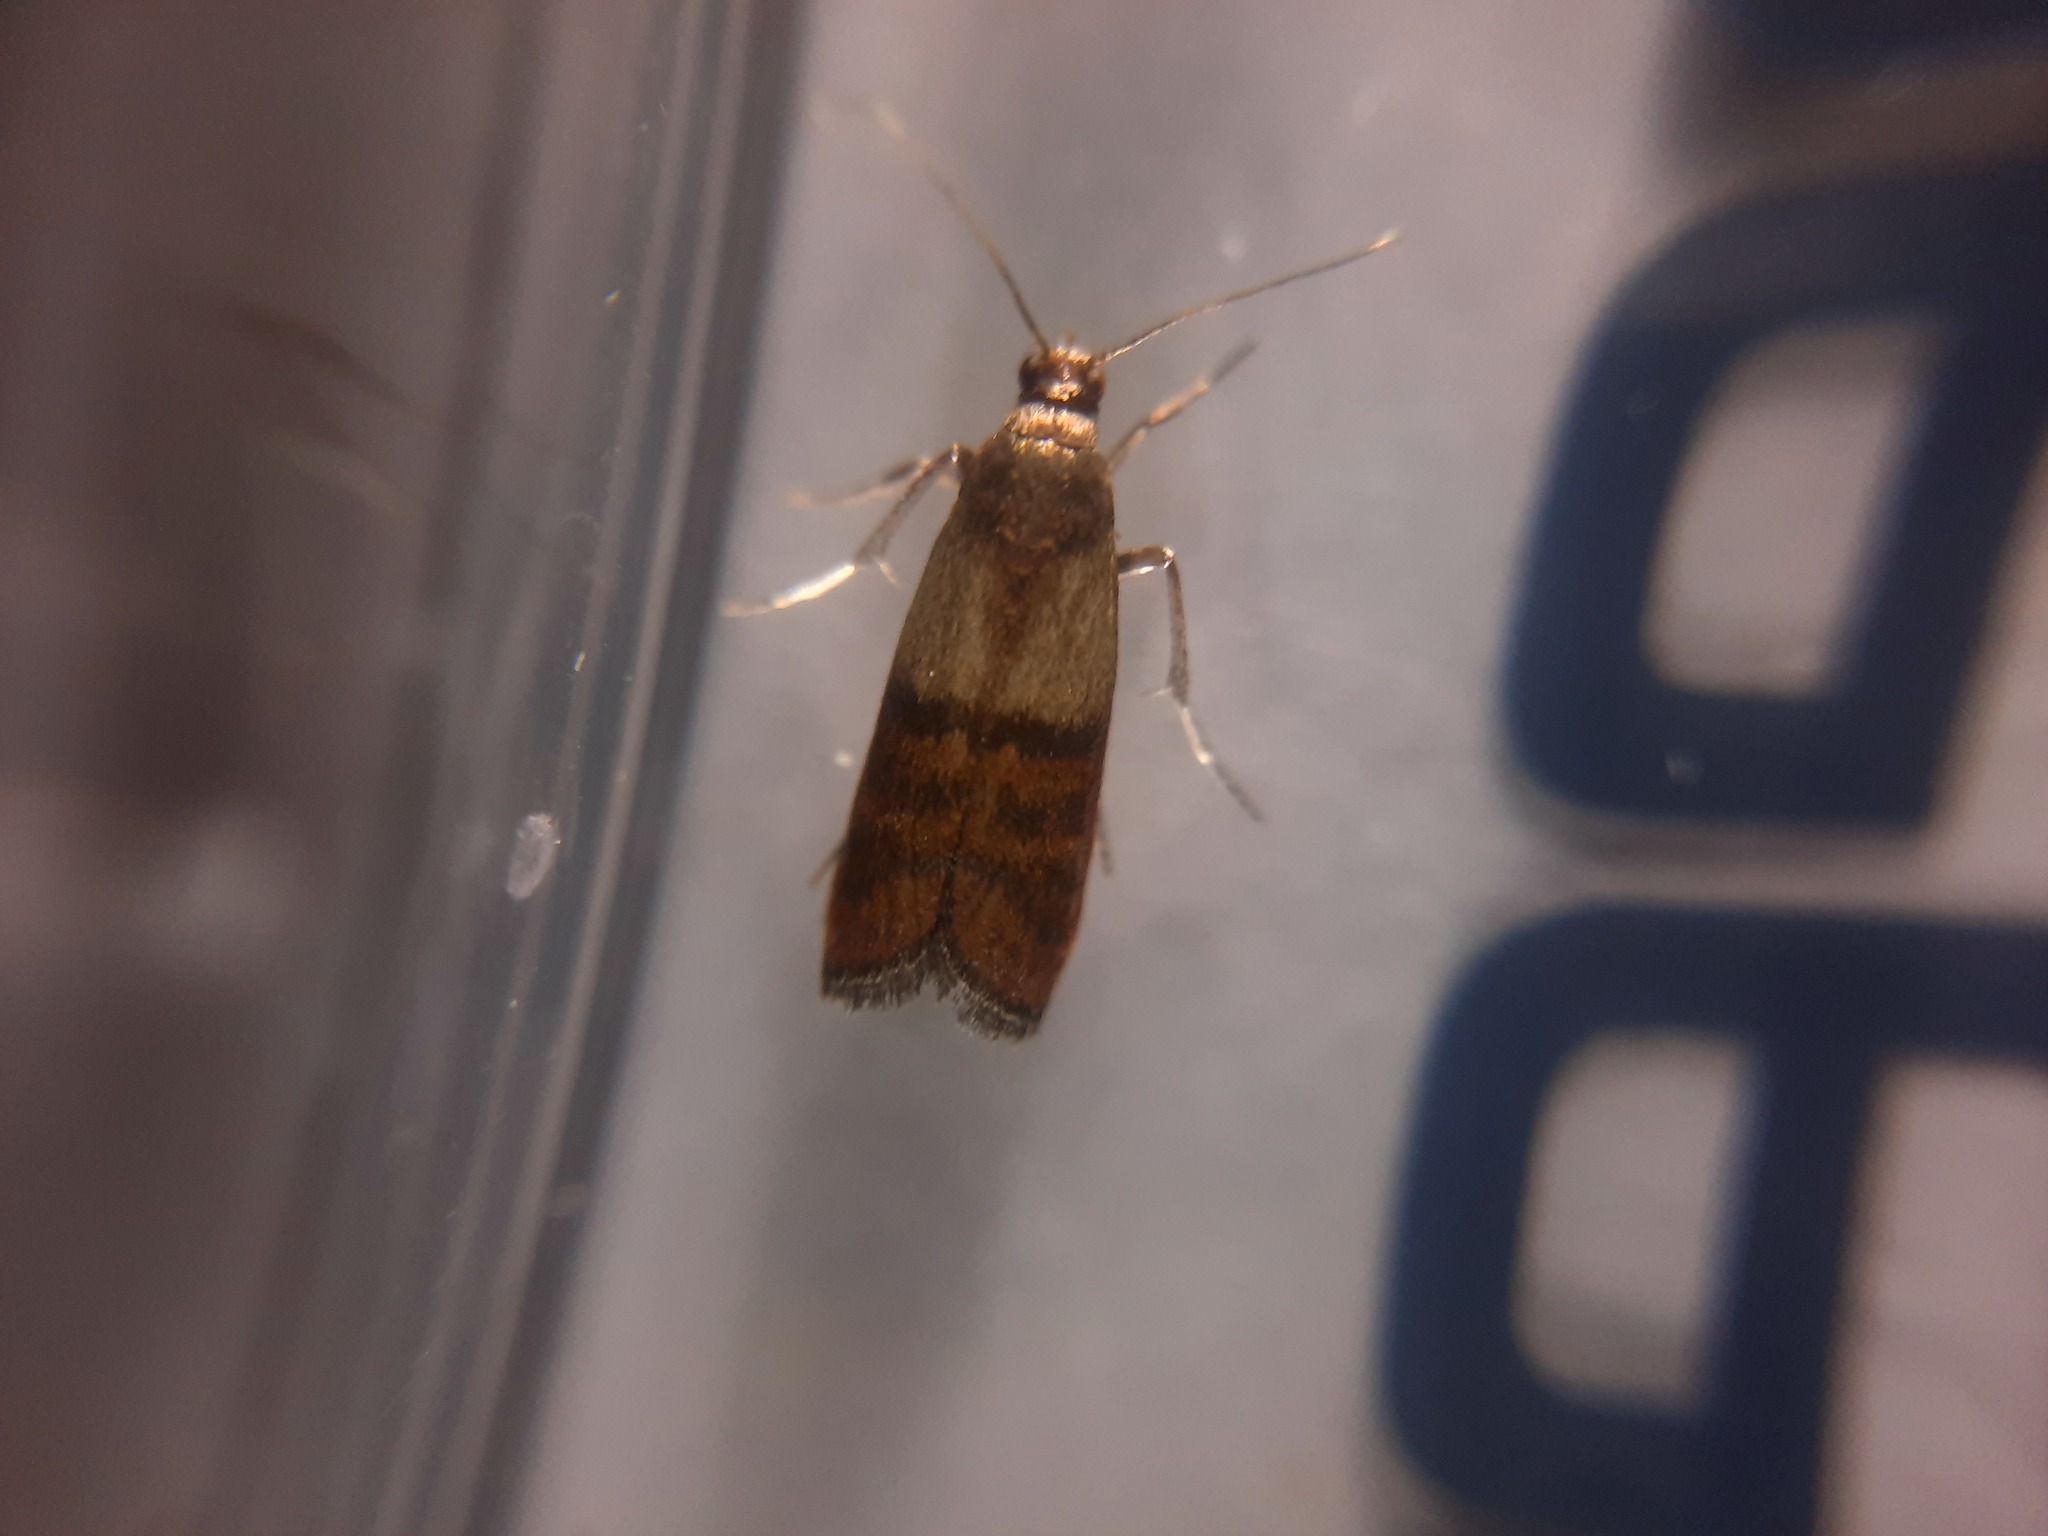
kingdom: Animalia
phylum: Arthropoda
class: Insecta
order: Lepidoptera
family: Pyralidae
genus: Plodia
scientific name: Plodia interpunctella
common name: Indian meal moth
